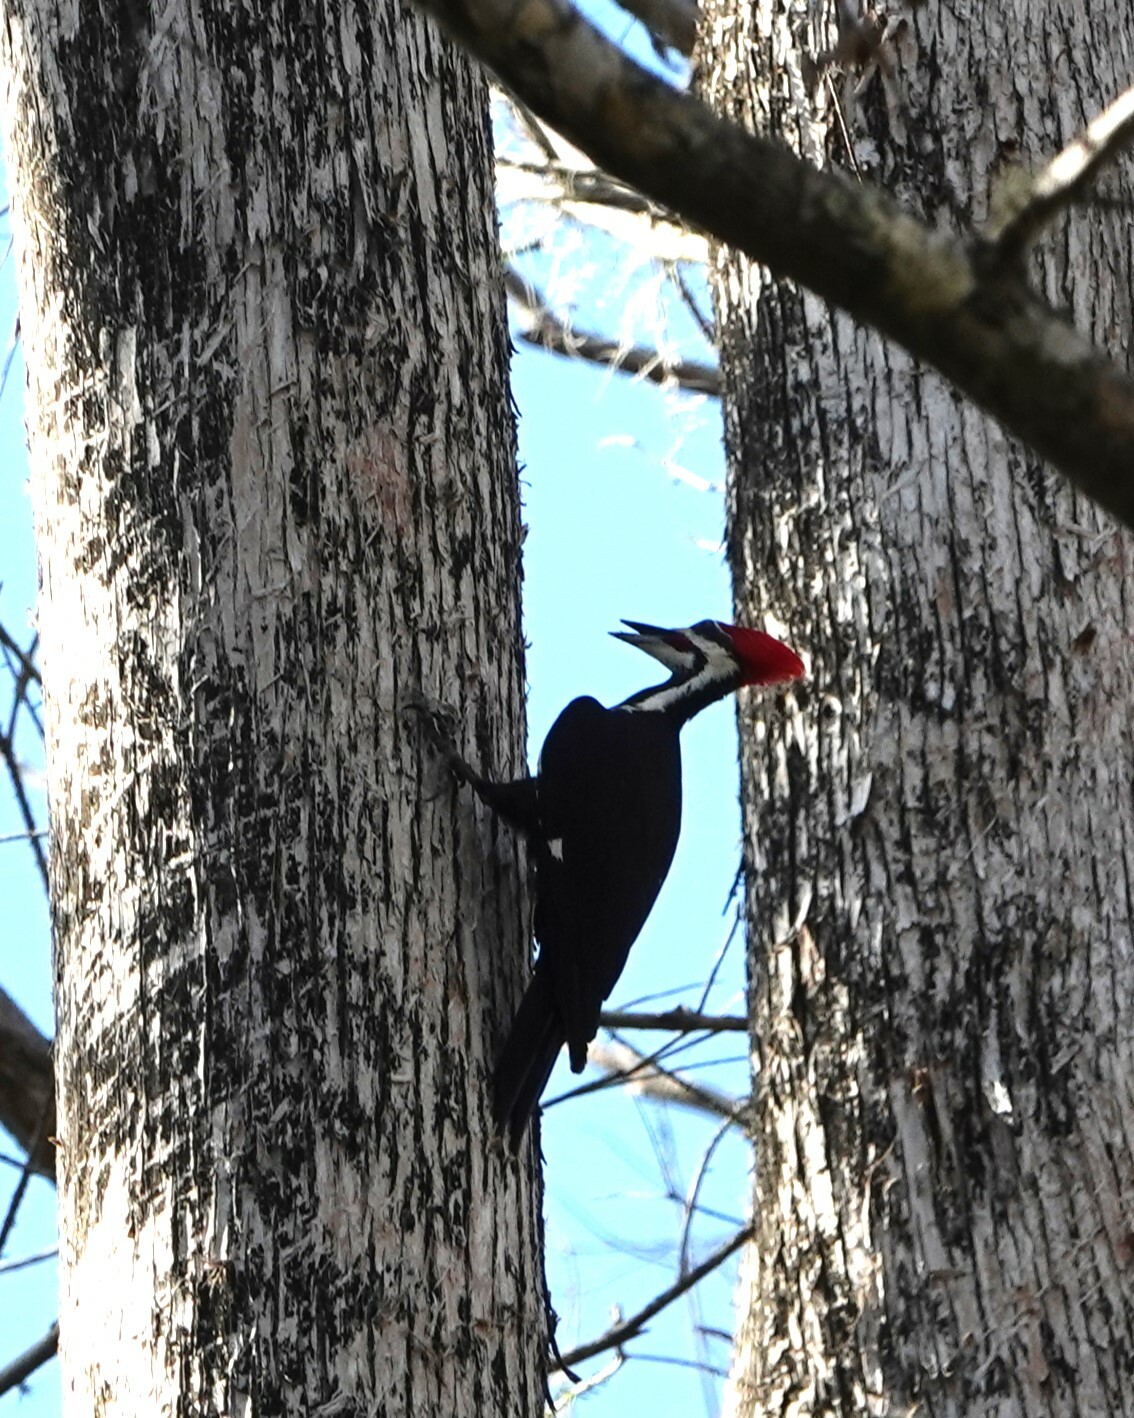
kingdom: Animalia
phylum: Chordata
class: Aves
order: Piciformes
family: Picidae
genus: Dryocopus
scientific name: Dryocopus pileatus
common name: Pileated woodpecker
